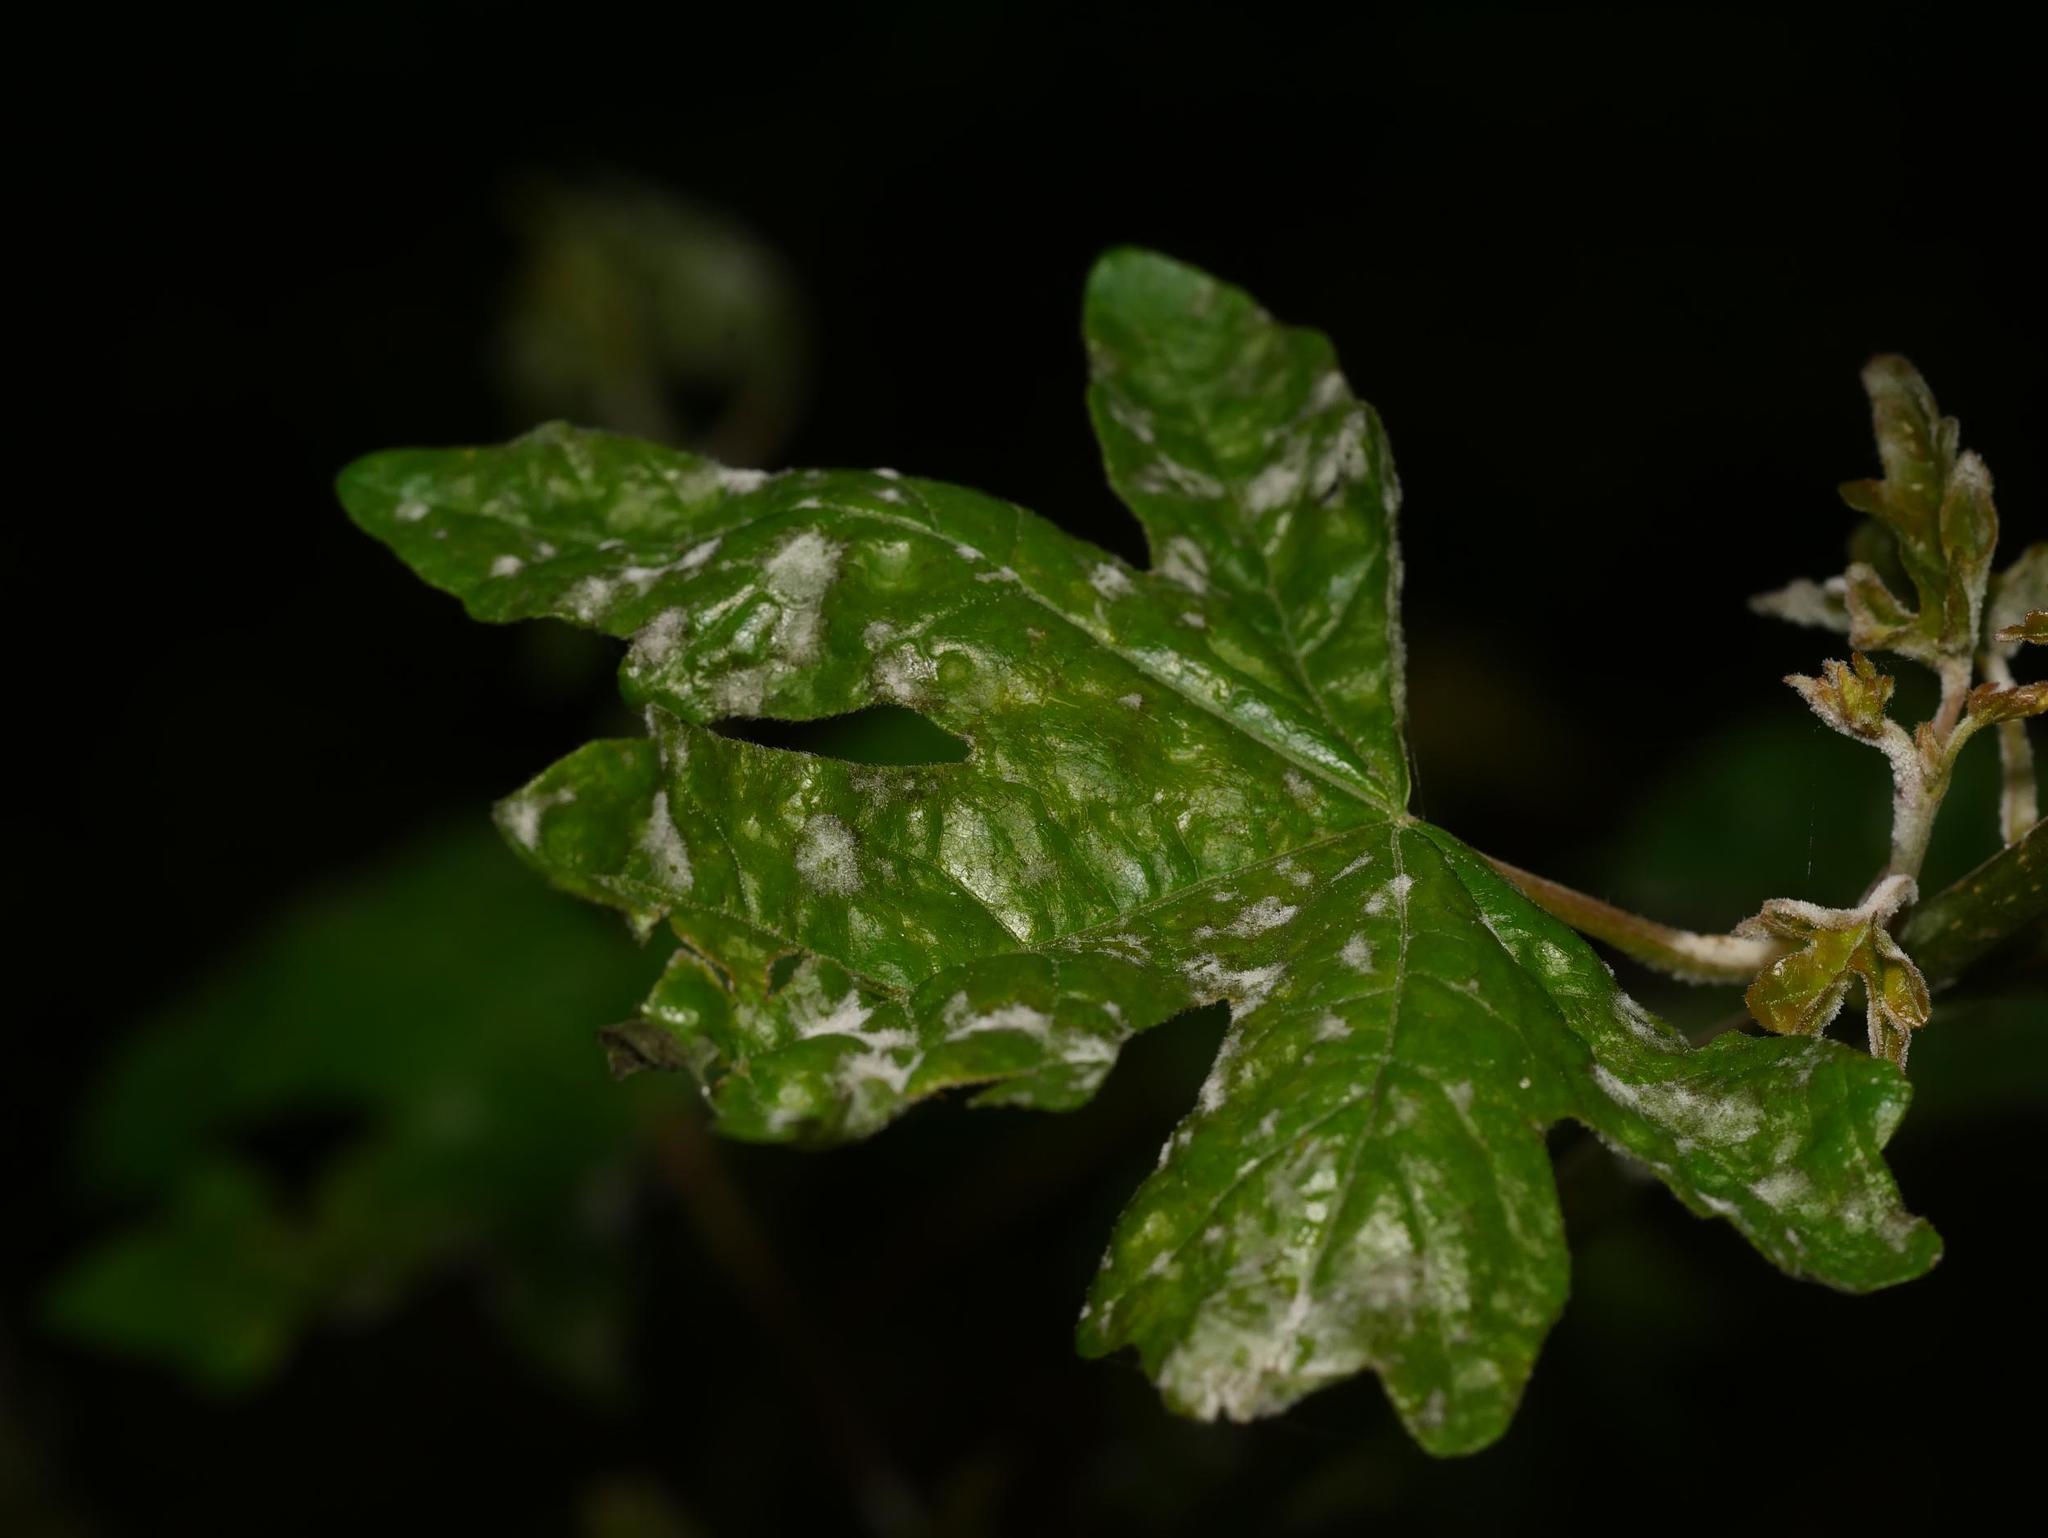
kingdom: Plantae
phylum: Tracheophyta
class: Magnoliopsida
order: Sapindales
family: Sapindaceae
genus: Acer
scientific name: Acer campestre
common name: Field maple
